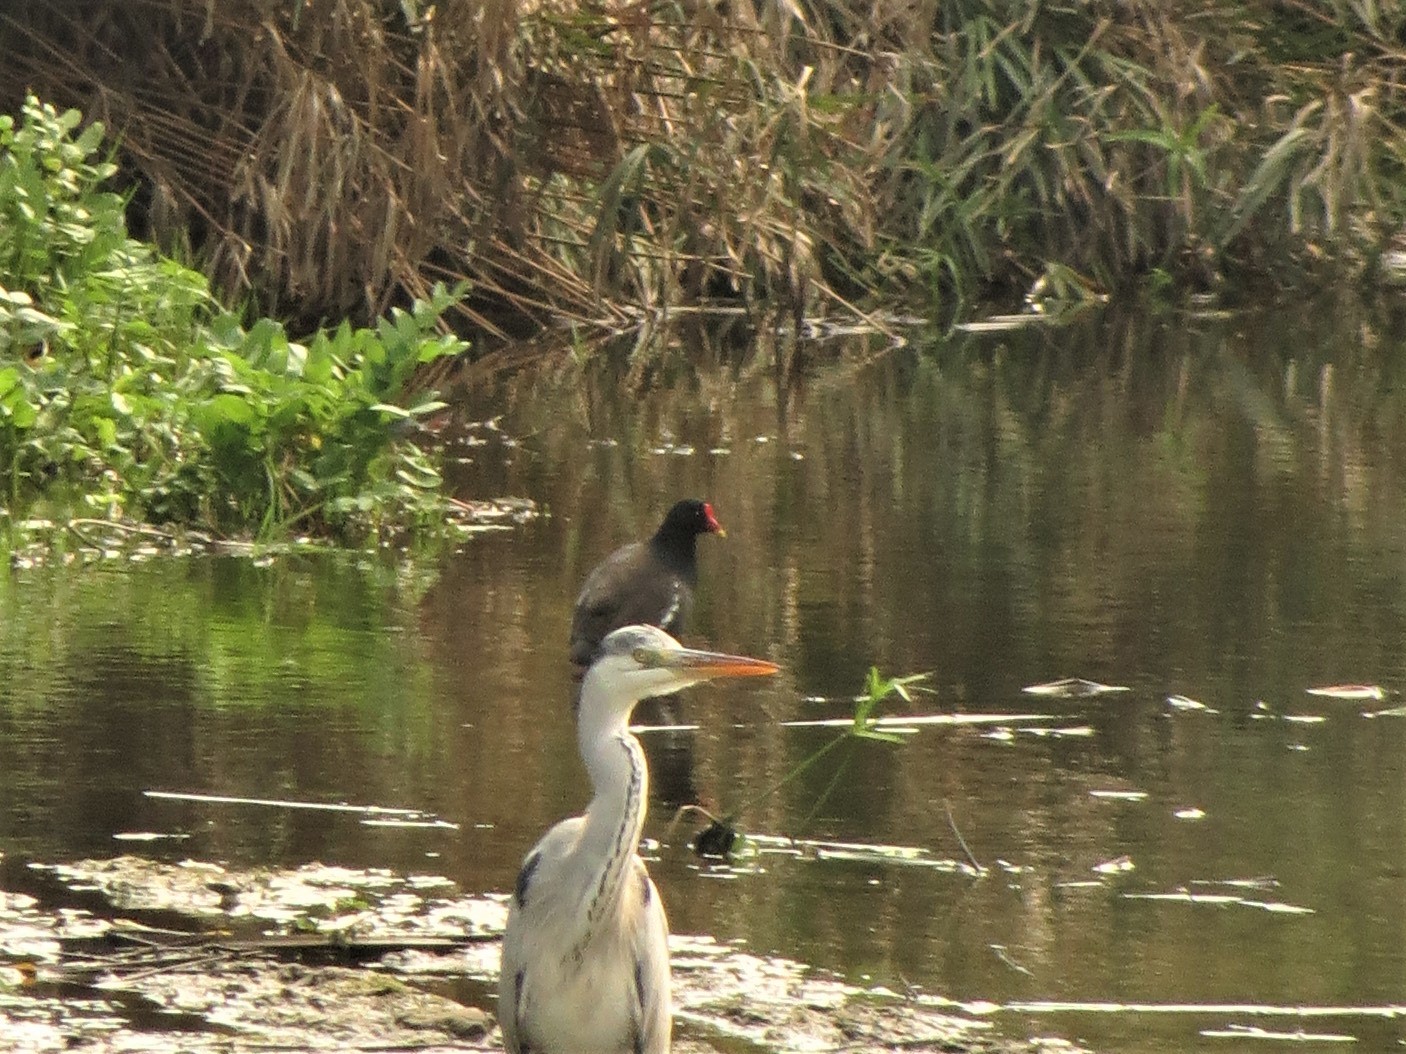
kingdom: Animalia
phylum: Chordata
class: Aves
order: Gruiformes
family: Rallidae
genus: Gallinula
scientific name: Gallinula chloropus
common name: Common moorhen
